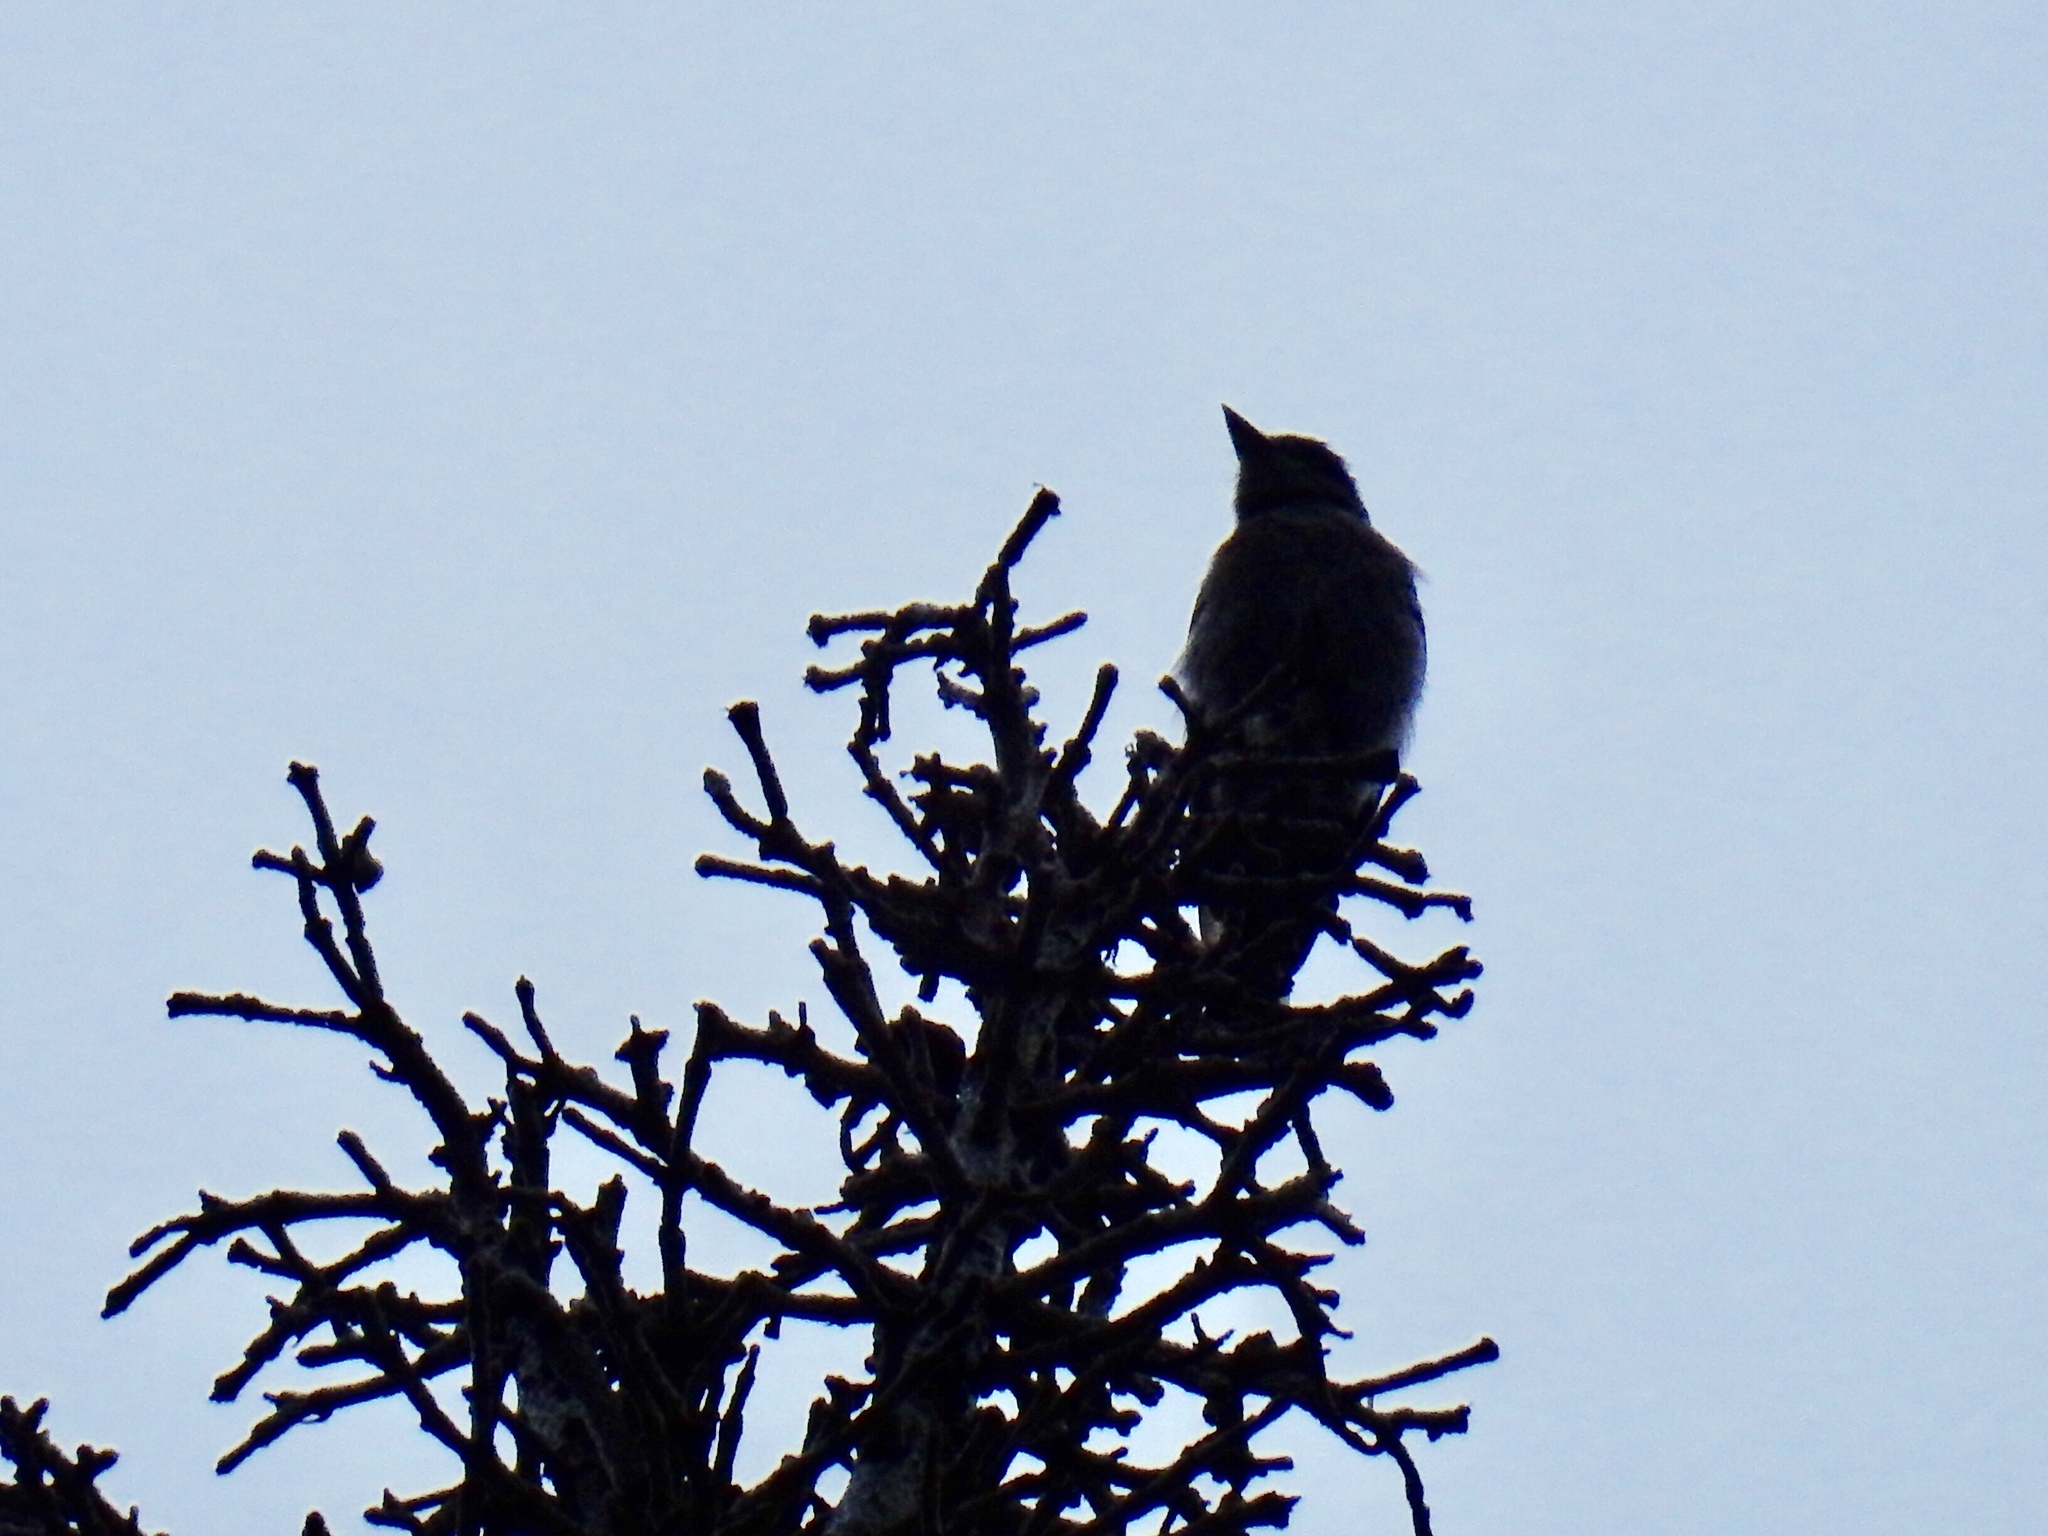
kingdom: Animalia
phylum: Chordata
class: Aves
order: Passeriformes
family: Tyrannidae
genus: Contopus
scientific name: Contopus sordidulus
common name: Western wood-pewee
